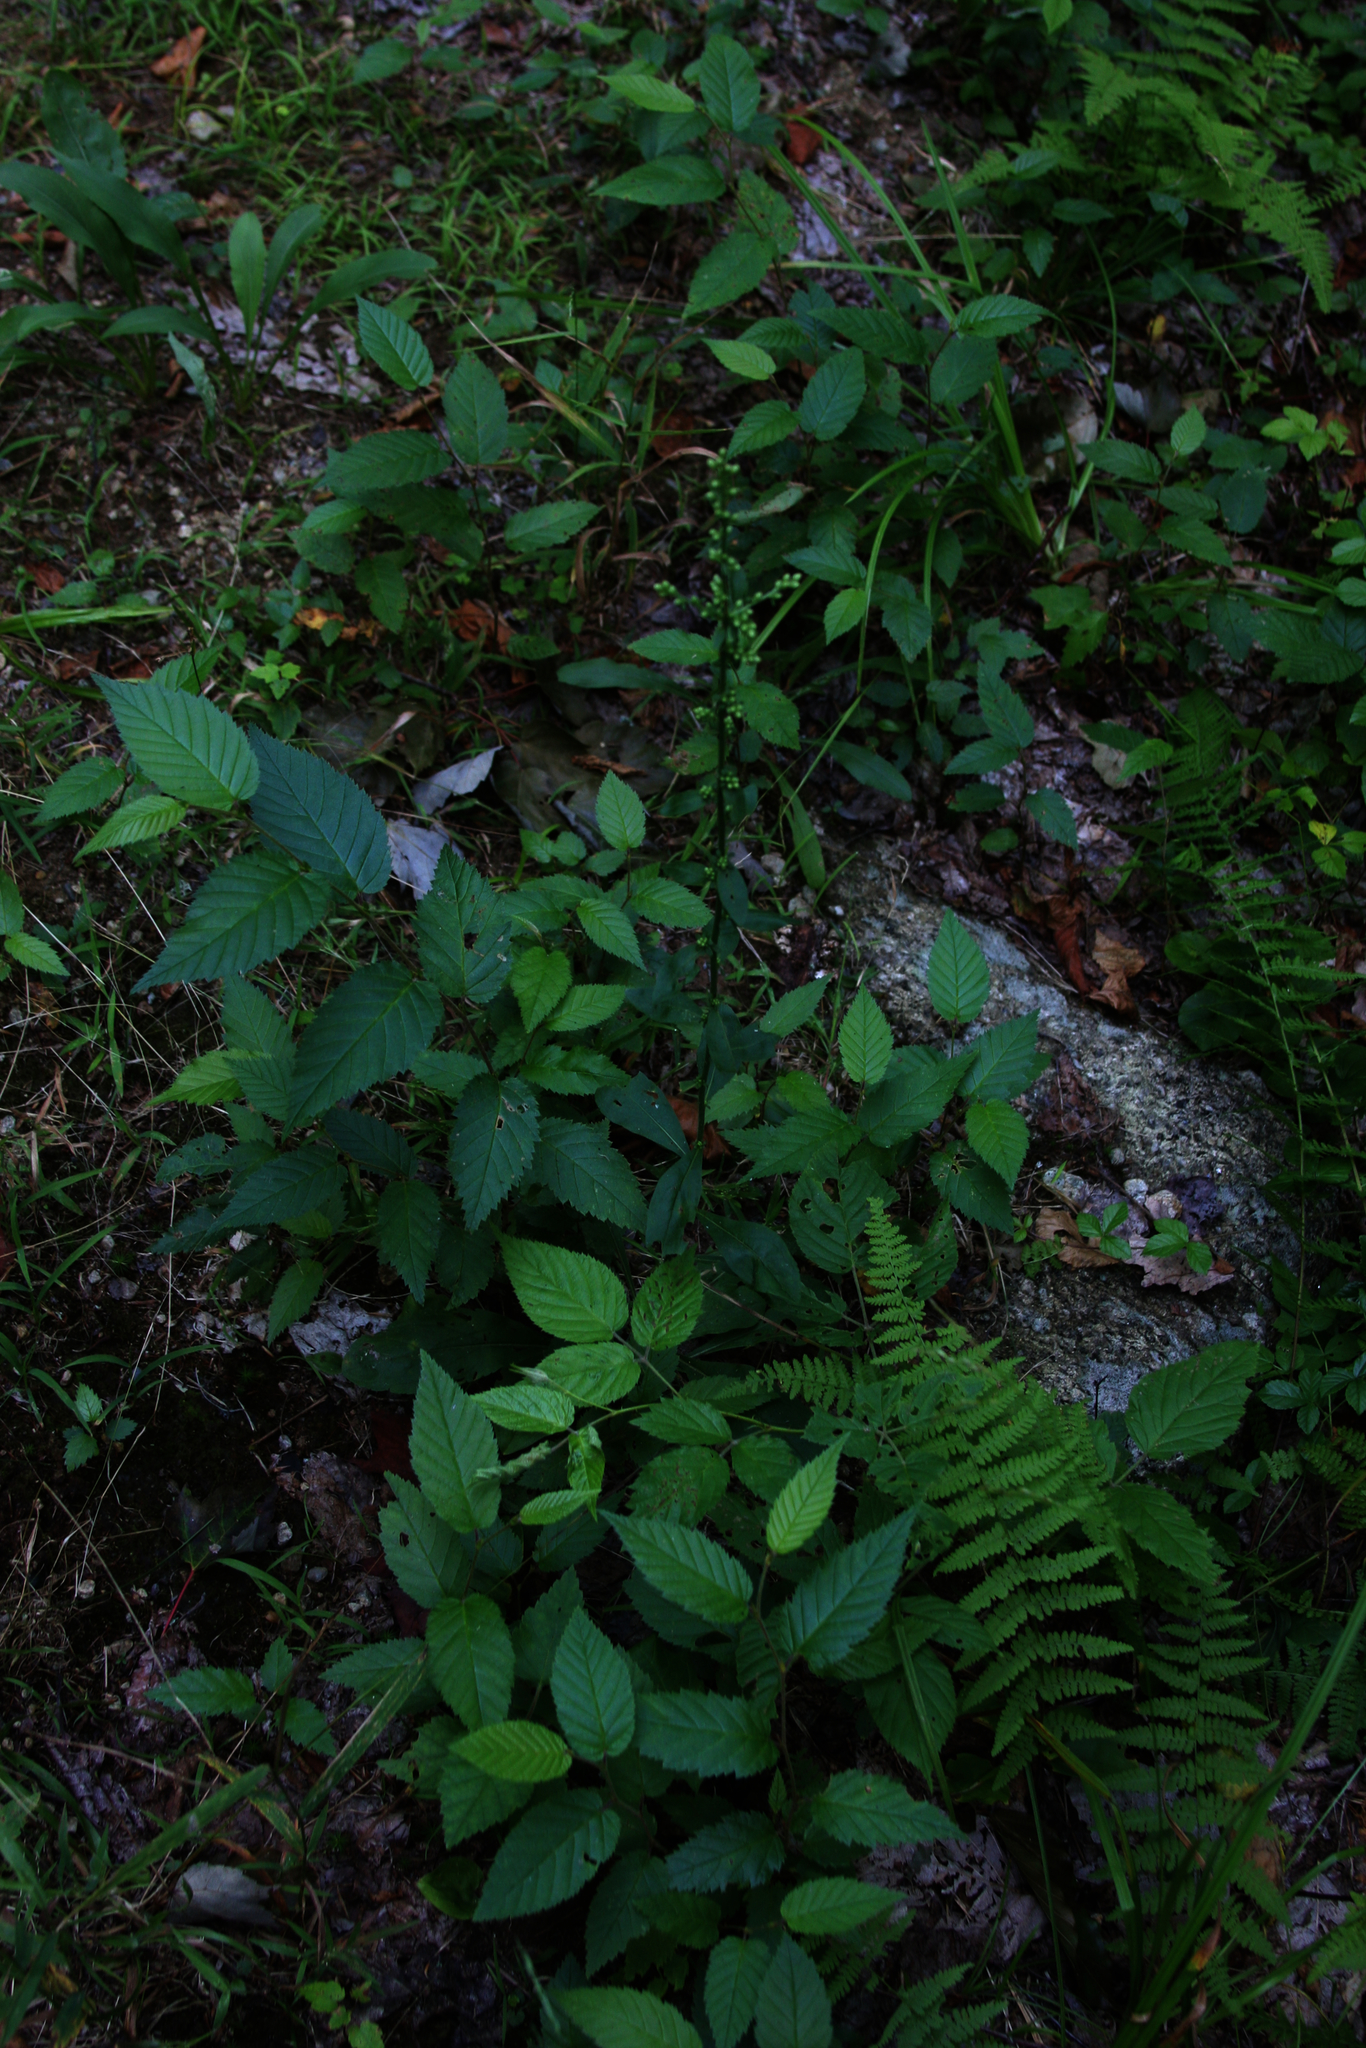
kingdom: Plantae
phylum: Tracheophyta
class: Magnoliopsida
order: Asterales
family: Asteraceae
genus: Solidago
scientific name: Solidago bicolor
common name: Silverrod
